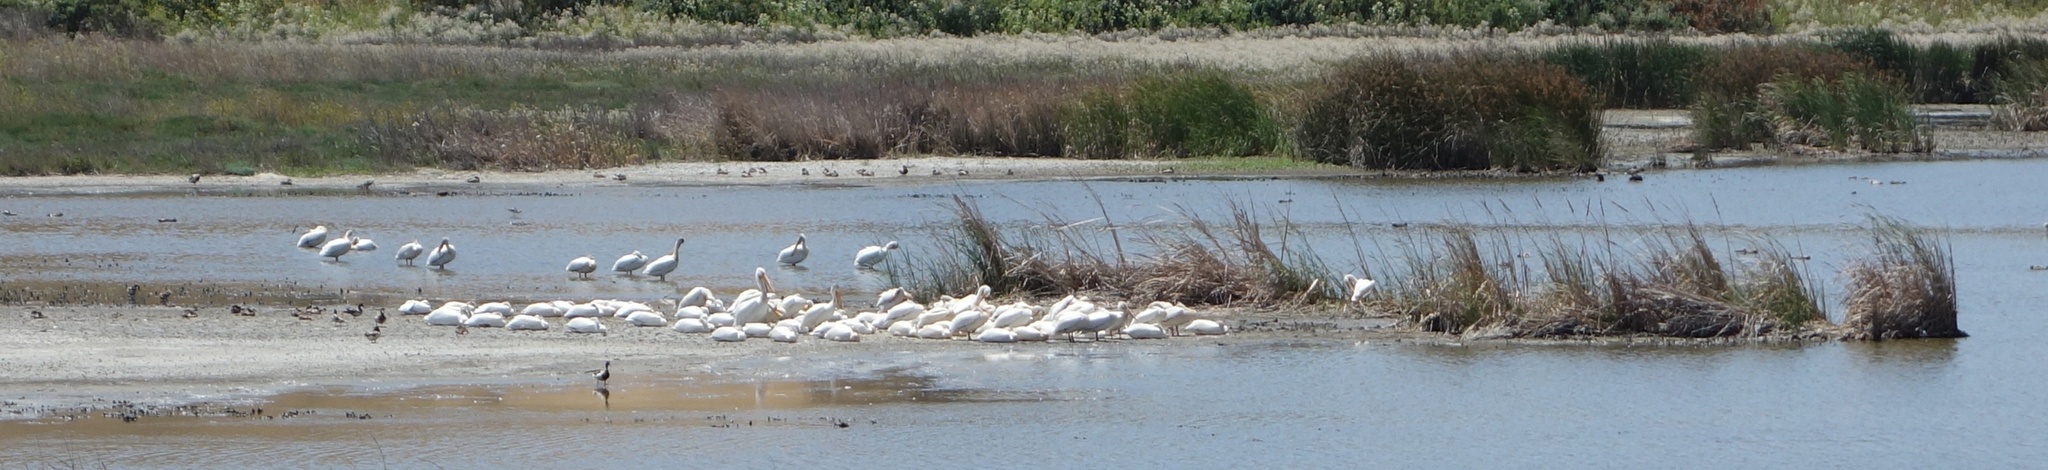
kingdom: Animalia
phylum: Chordata
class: Aves
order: Pelecaniformes
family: Pelecanidae
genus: Pelecanus
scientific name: Pelecanus erythrorhynchos
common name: American white pelican
